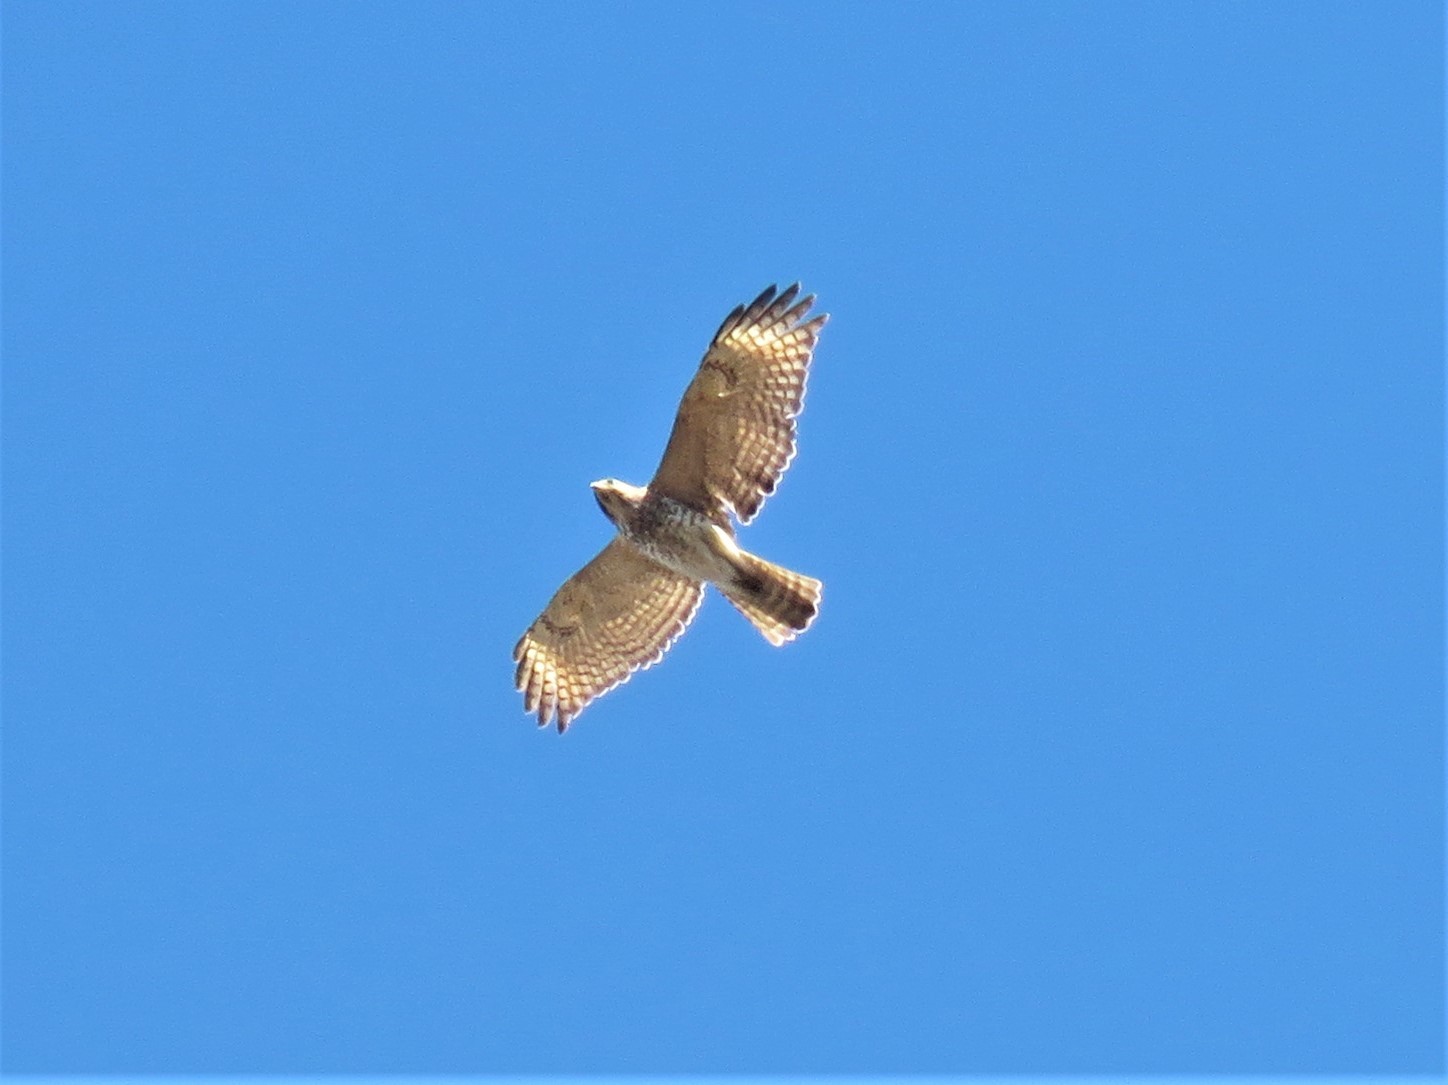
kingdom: Animalia
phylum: Chordata
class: Aves
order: Accipitriformes
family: Accipitridae
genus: Buteo
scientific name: Buteo lineatus
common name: Red-shouldered hawk
